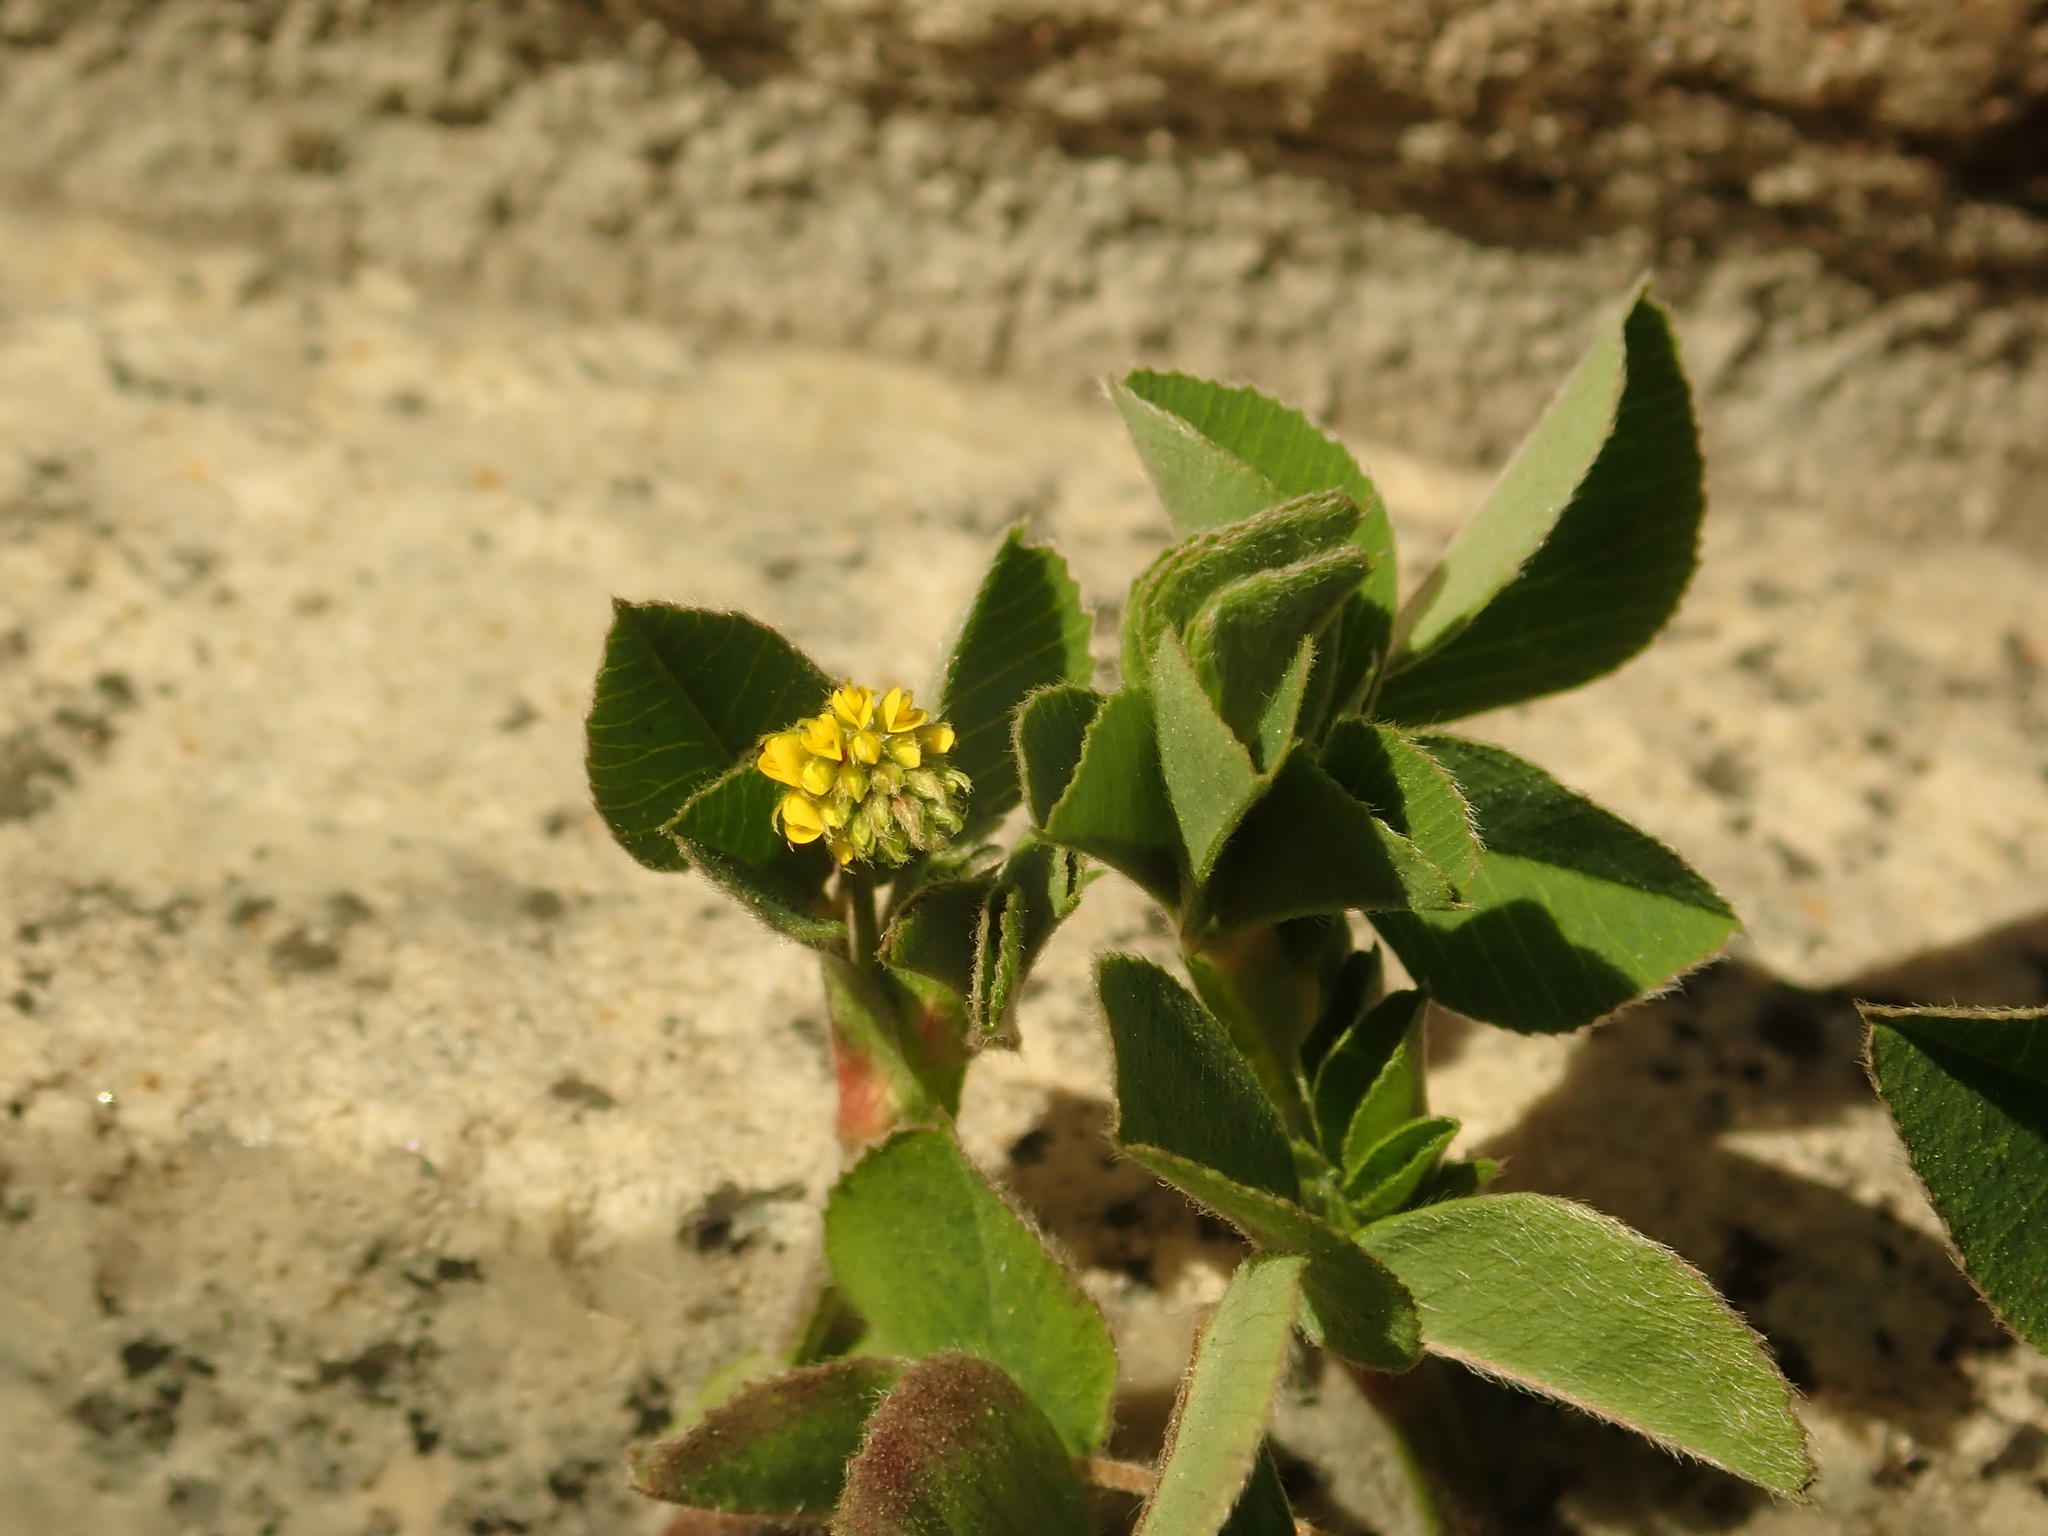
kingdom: Plantae
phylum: Tracheophyta
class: Magnoliopsida
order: Fabales
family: Fabaceae
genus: Medicago
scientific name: Medicago lupulina
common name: Black medick
